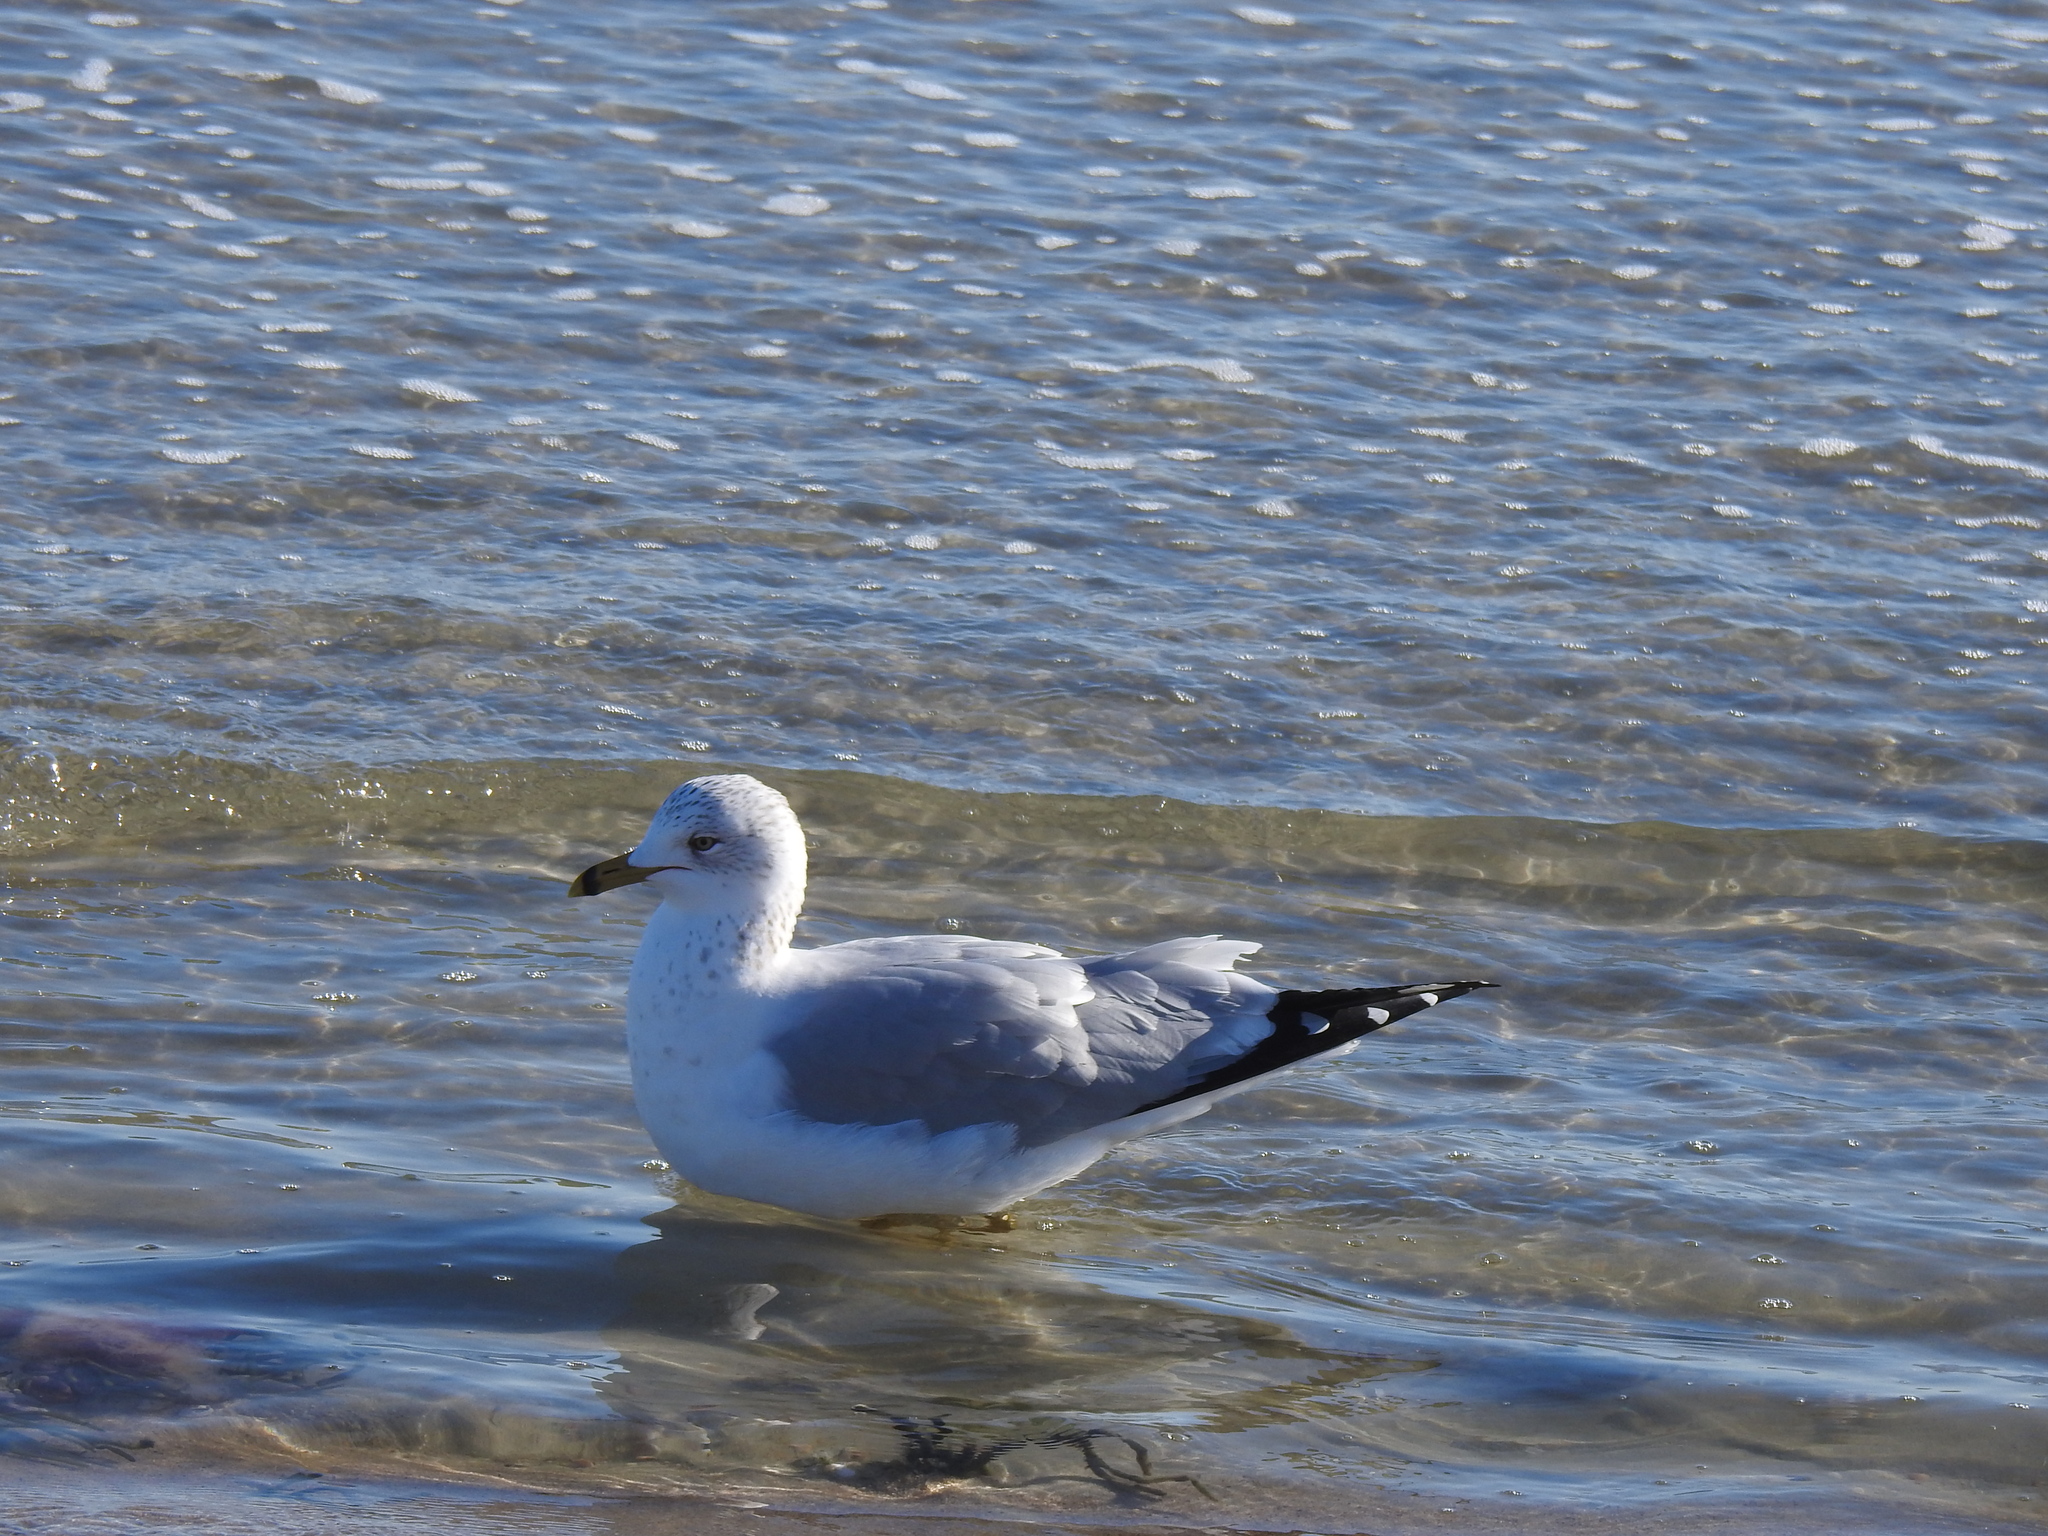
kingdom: Animalia
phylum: Chordata
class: Aves
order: Charadriiformes
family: Laridae
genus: Larus
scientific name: Larus delawarensis
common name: Ring-billed gull
